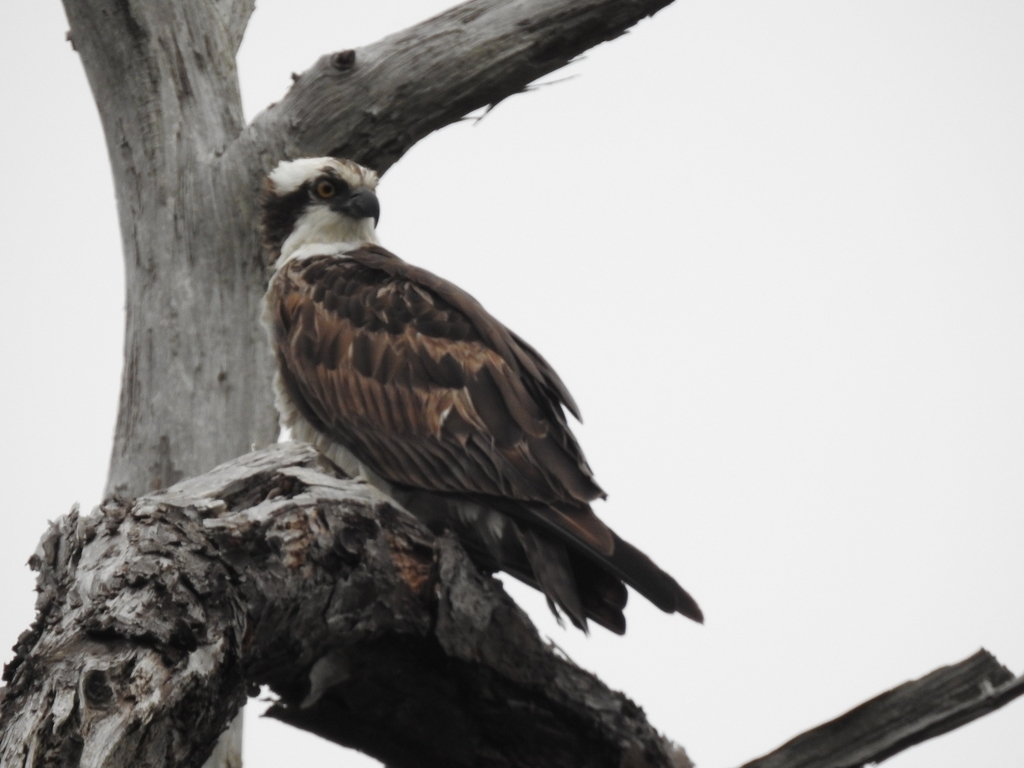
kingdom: Animalia
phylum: Chordata
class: Aves
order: Accipitriformes
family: Pandionidae
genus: Pandion
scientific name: Pandion haliaetus
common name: Osprey
